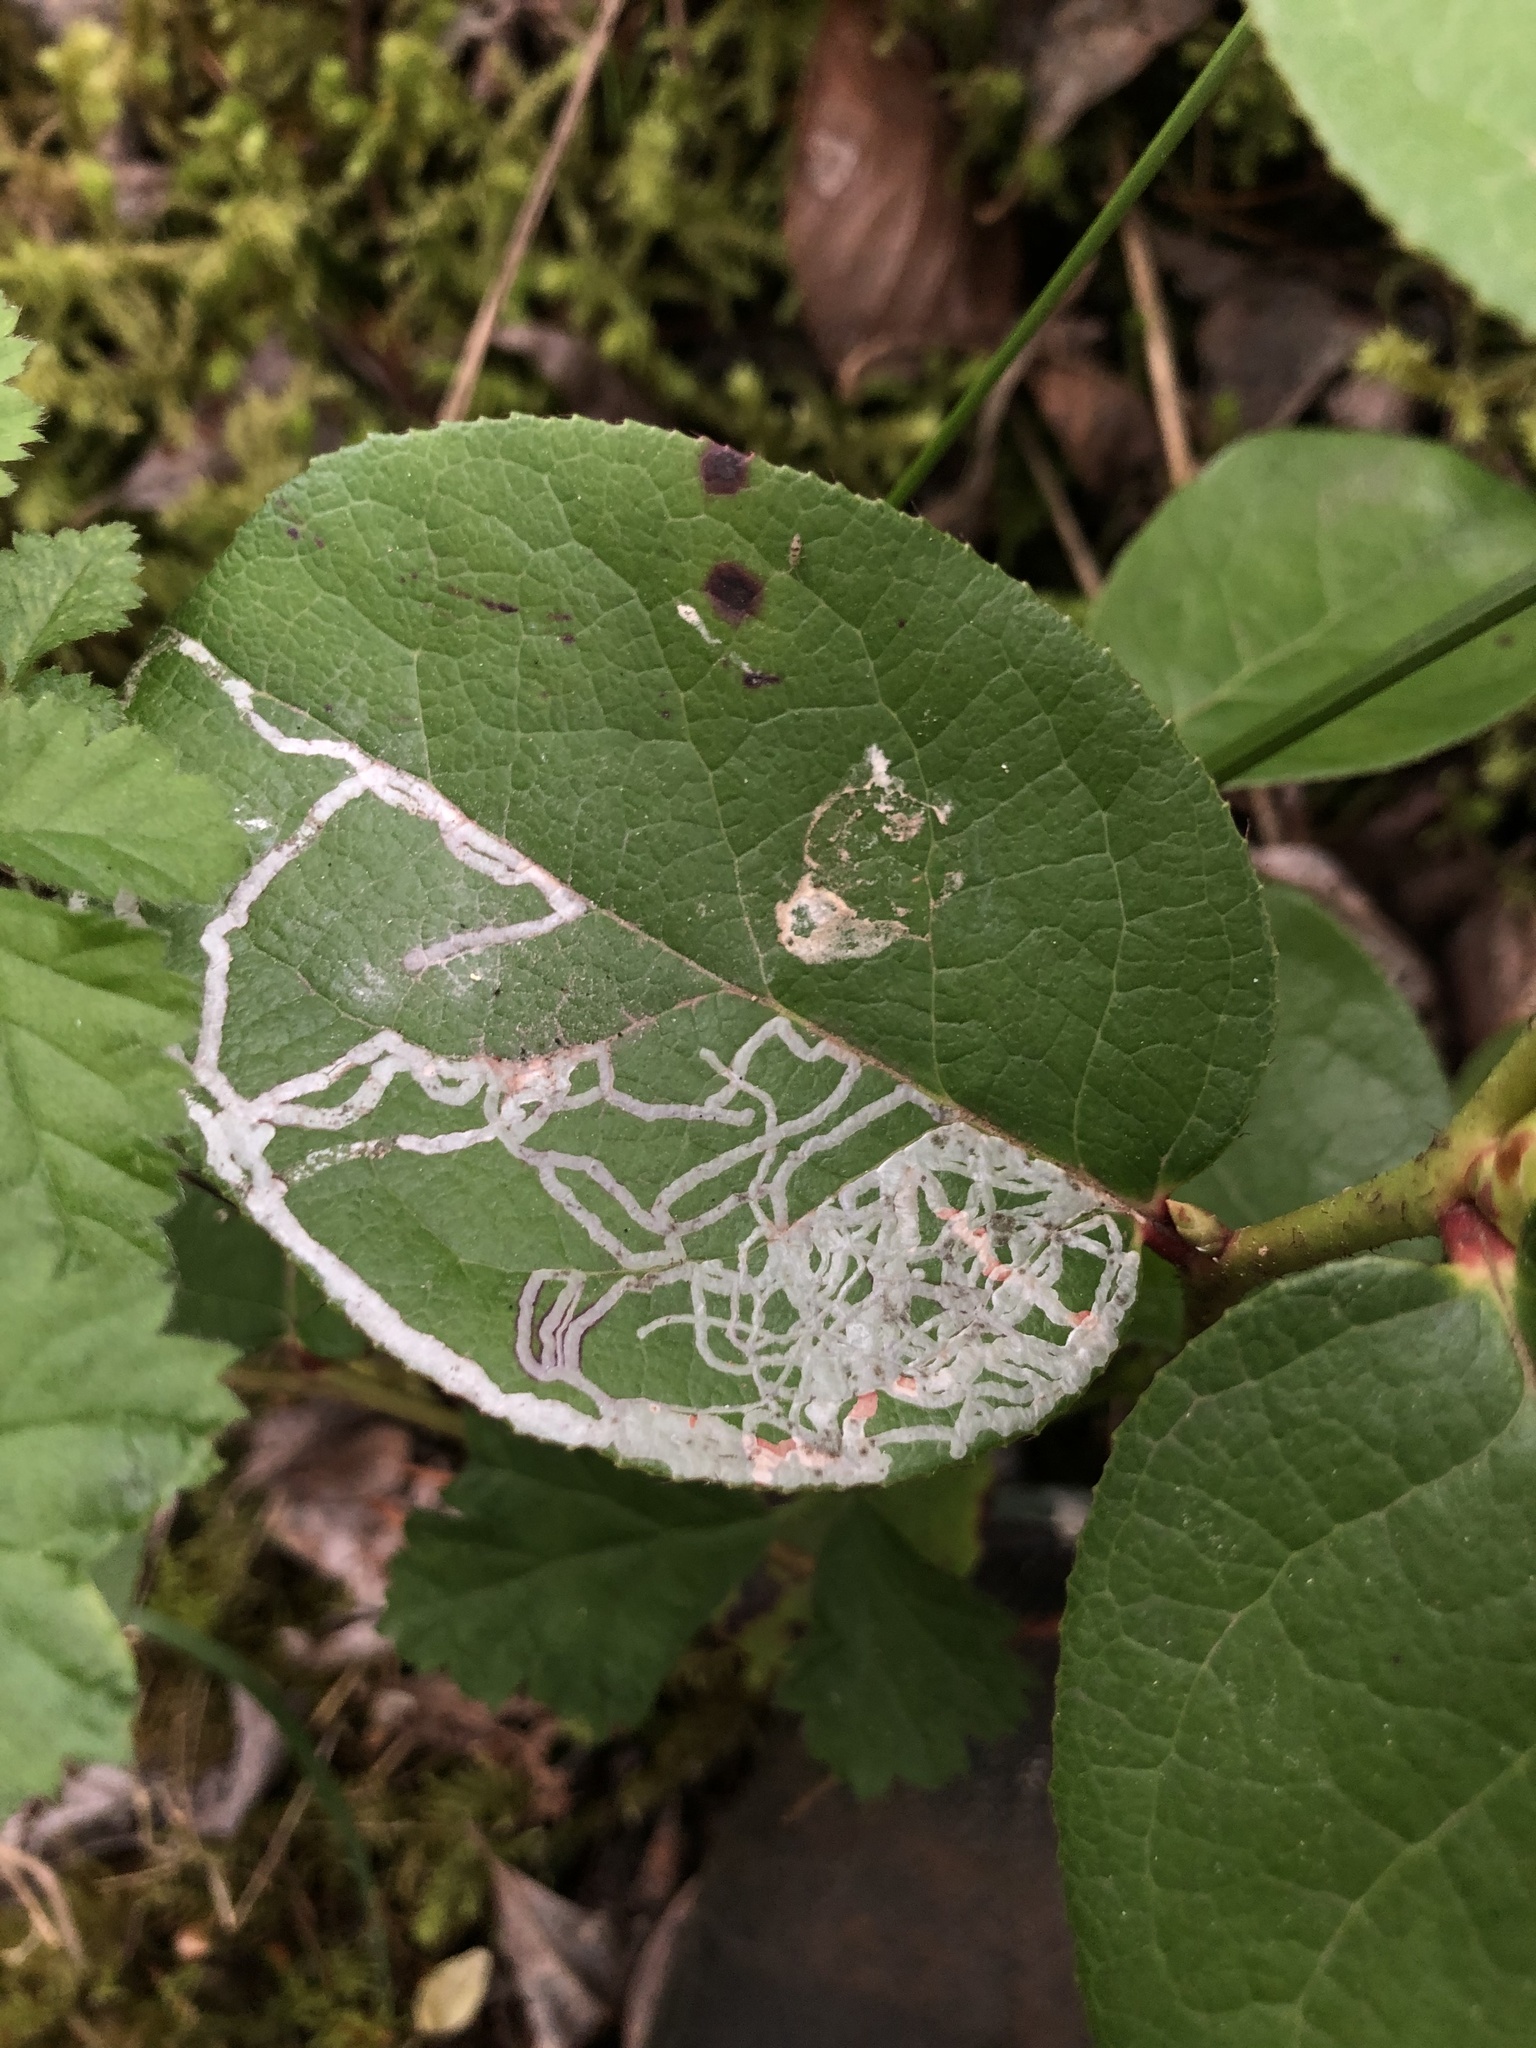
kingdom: Animalia
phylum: Arthropoda
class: Insecta
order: Lepidoptera
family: Gracillariidae
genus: Marmara
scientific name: Marmara arbutiella
